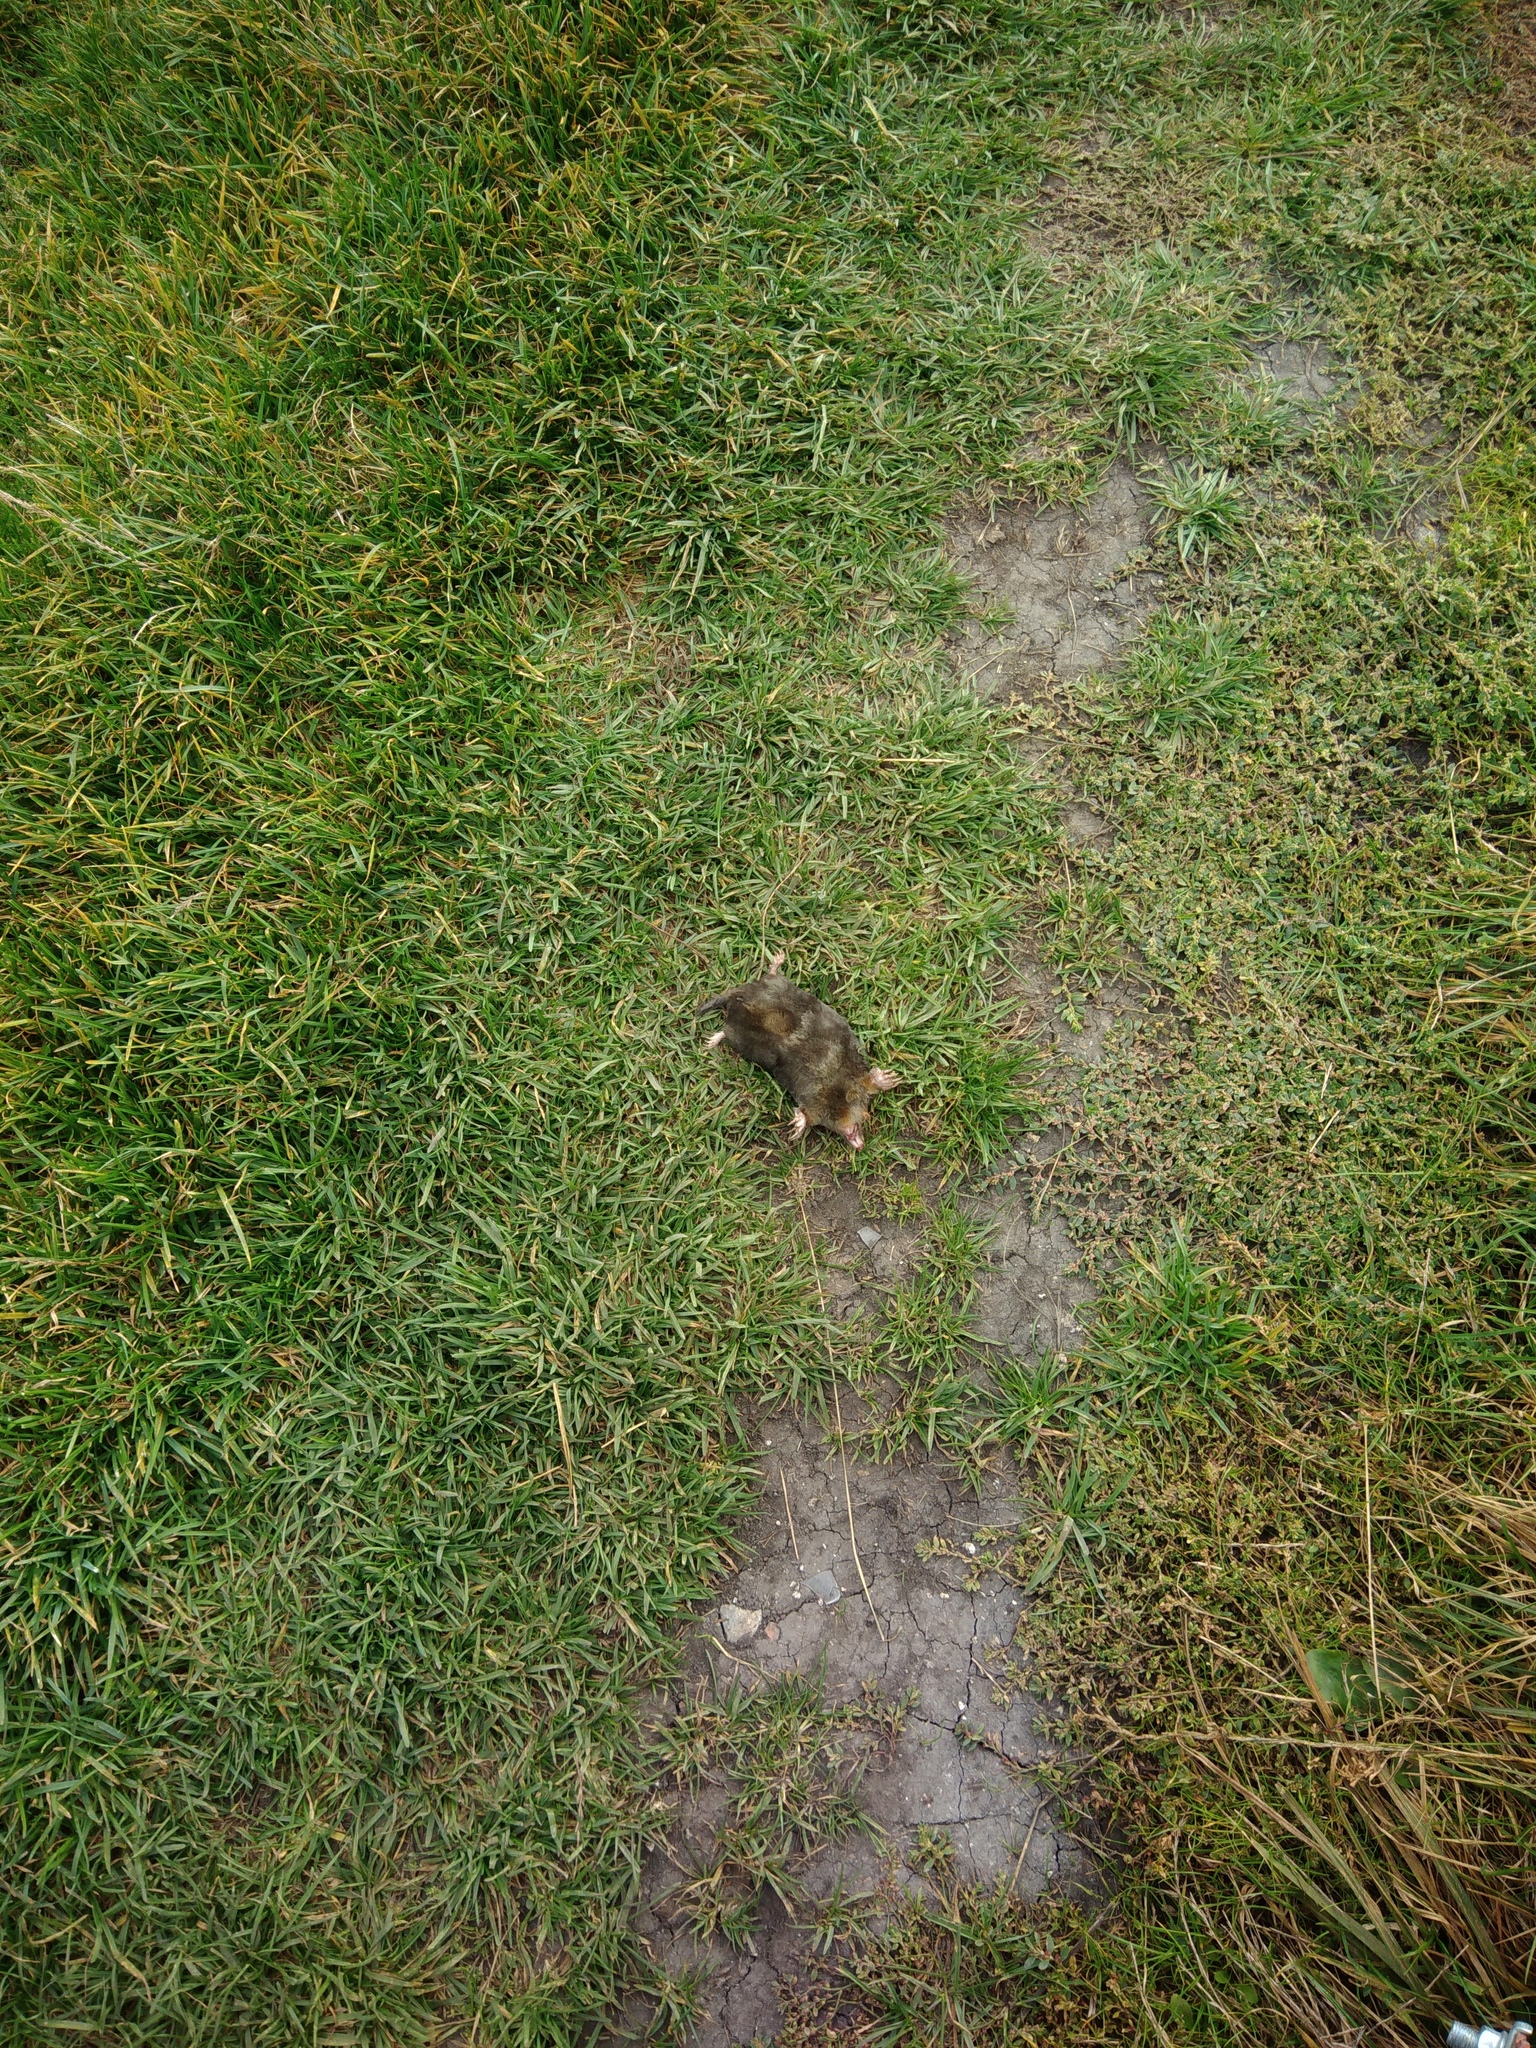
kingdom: Animalia
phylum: Chordata
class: Mammalia
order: Soricomorpha
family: Talpidae
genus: Talpa
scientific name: Talpa europaea
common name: European mole
